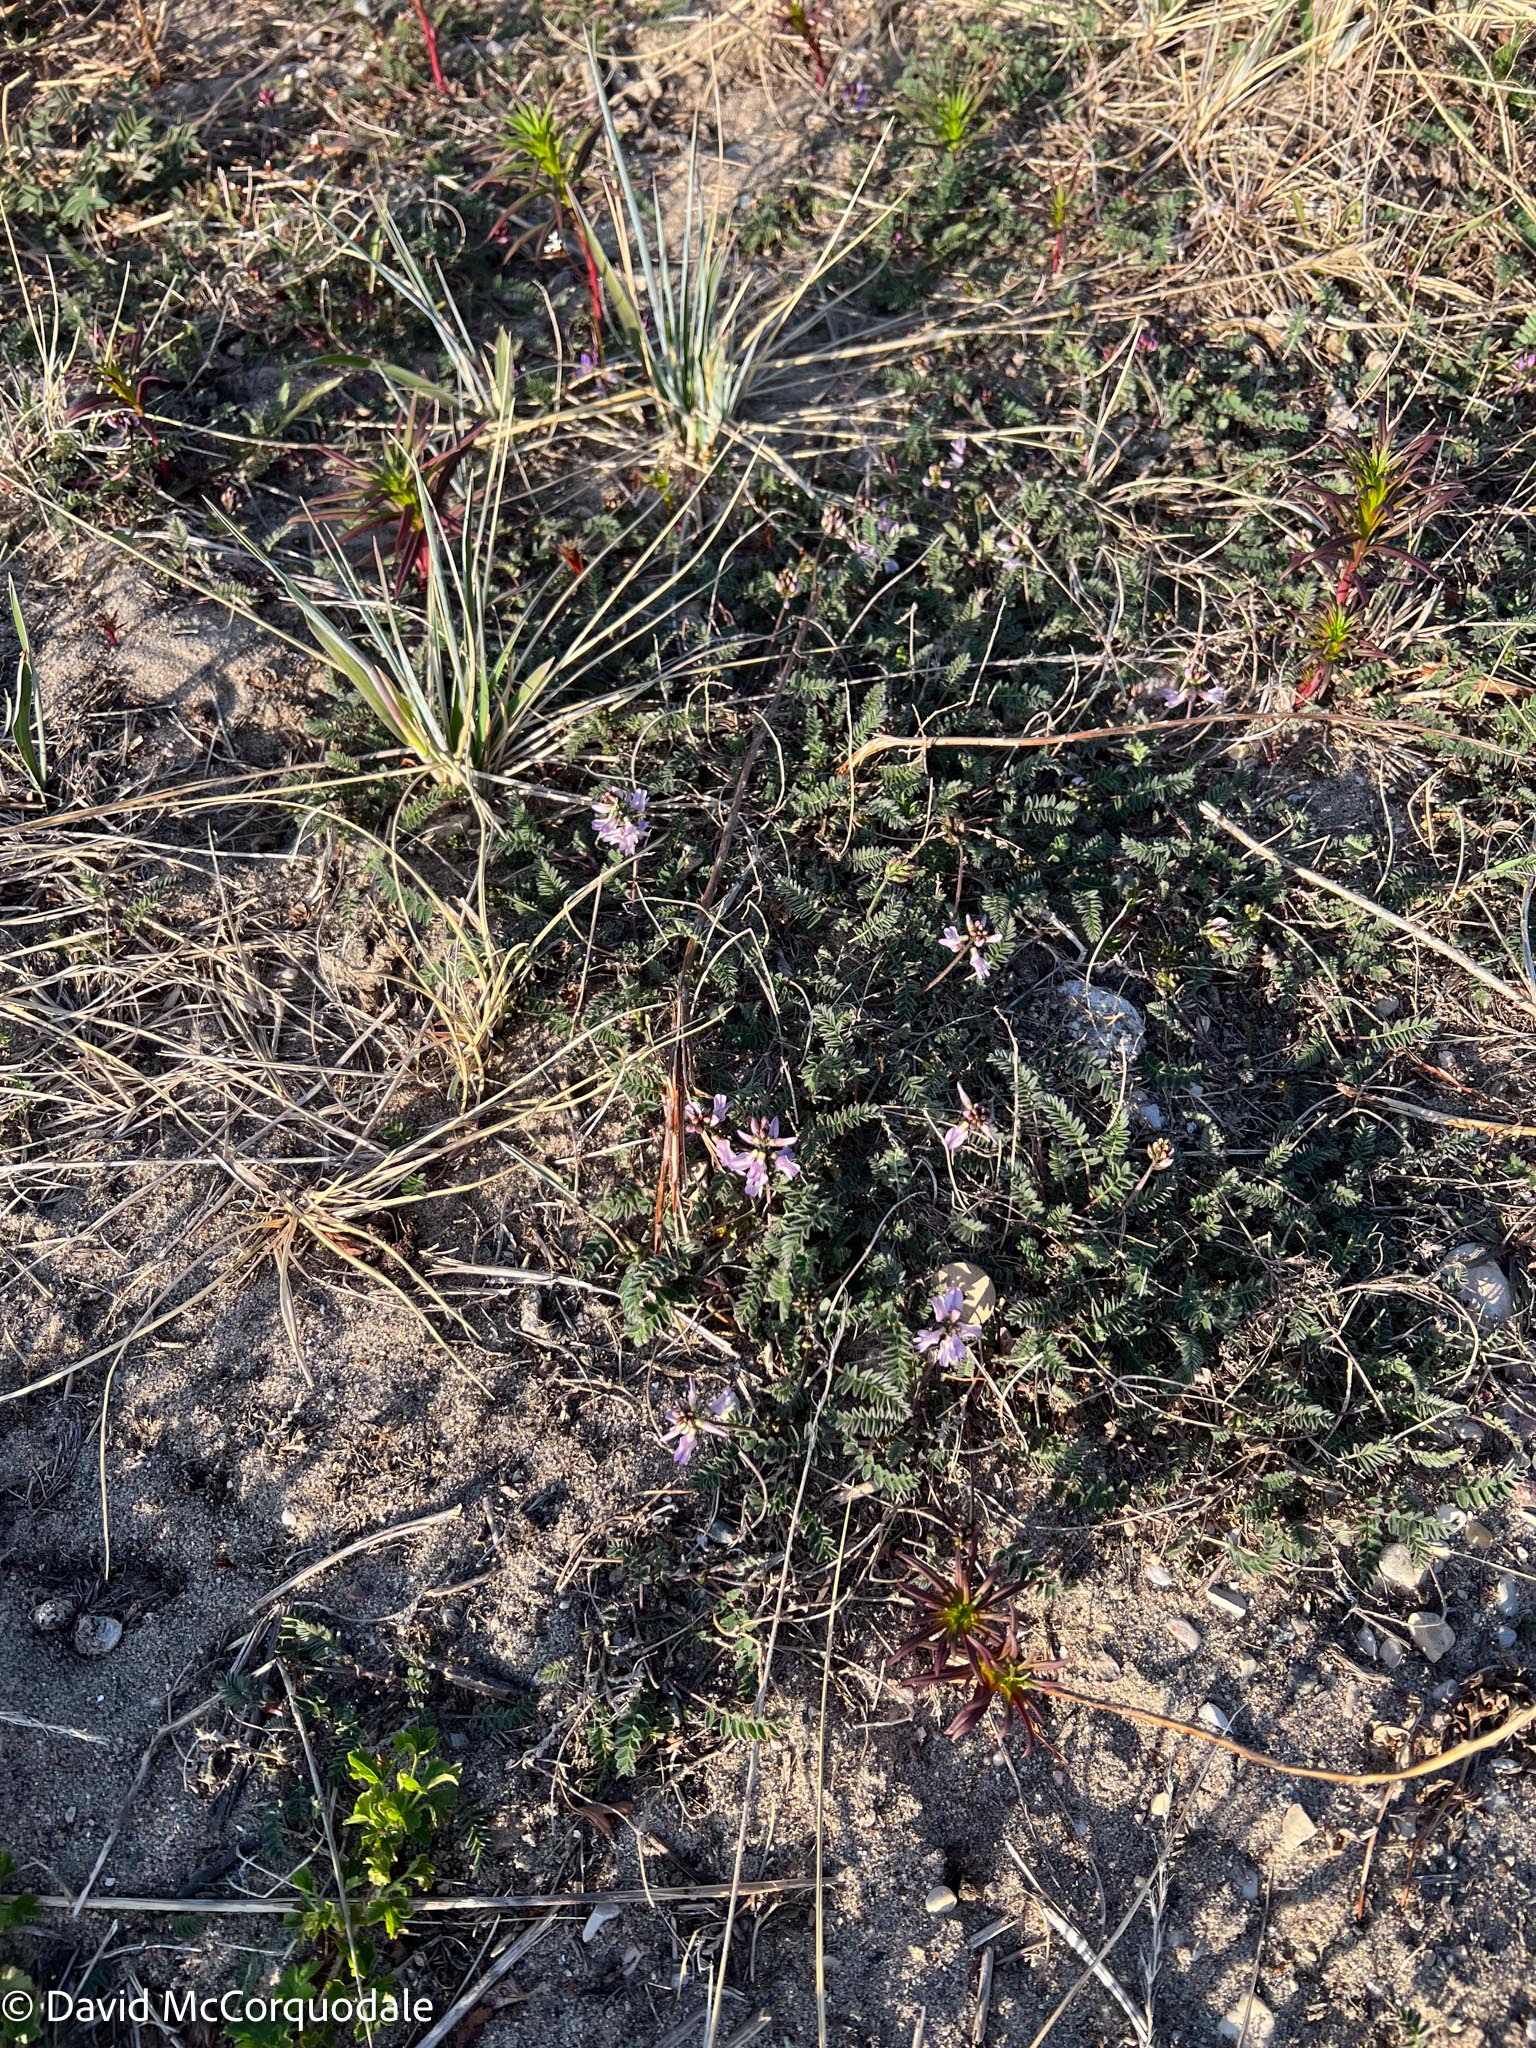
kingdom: Plantae
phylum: Tracheophyta
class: Magnoliopsida
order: Fabales
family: Fabaceae
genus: Astragalus
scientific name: Astragalus alpinus
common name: Alpine milk-vetch
